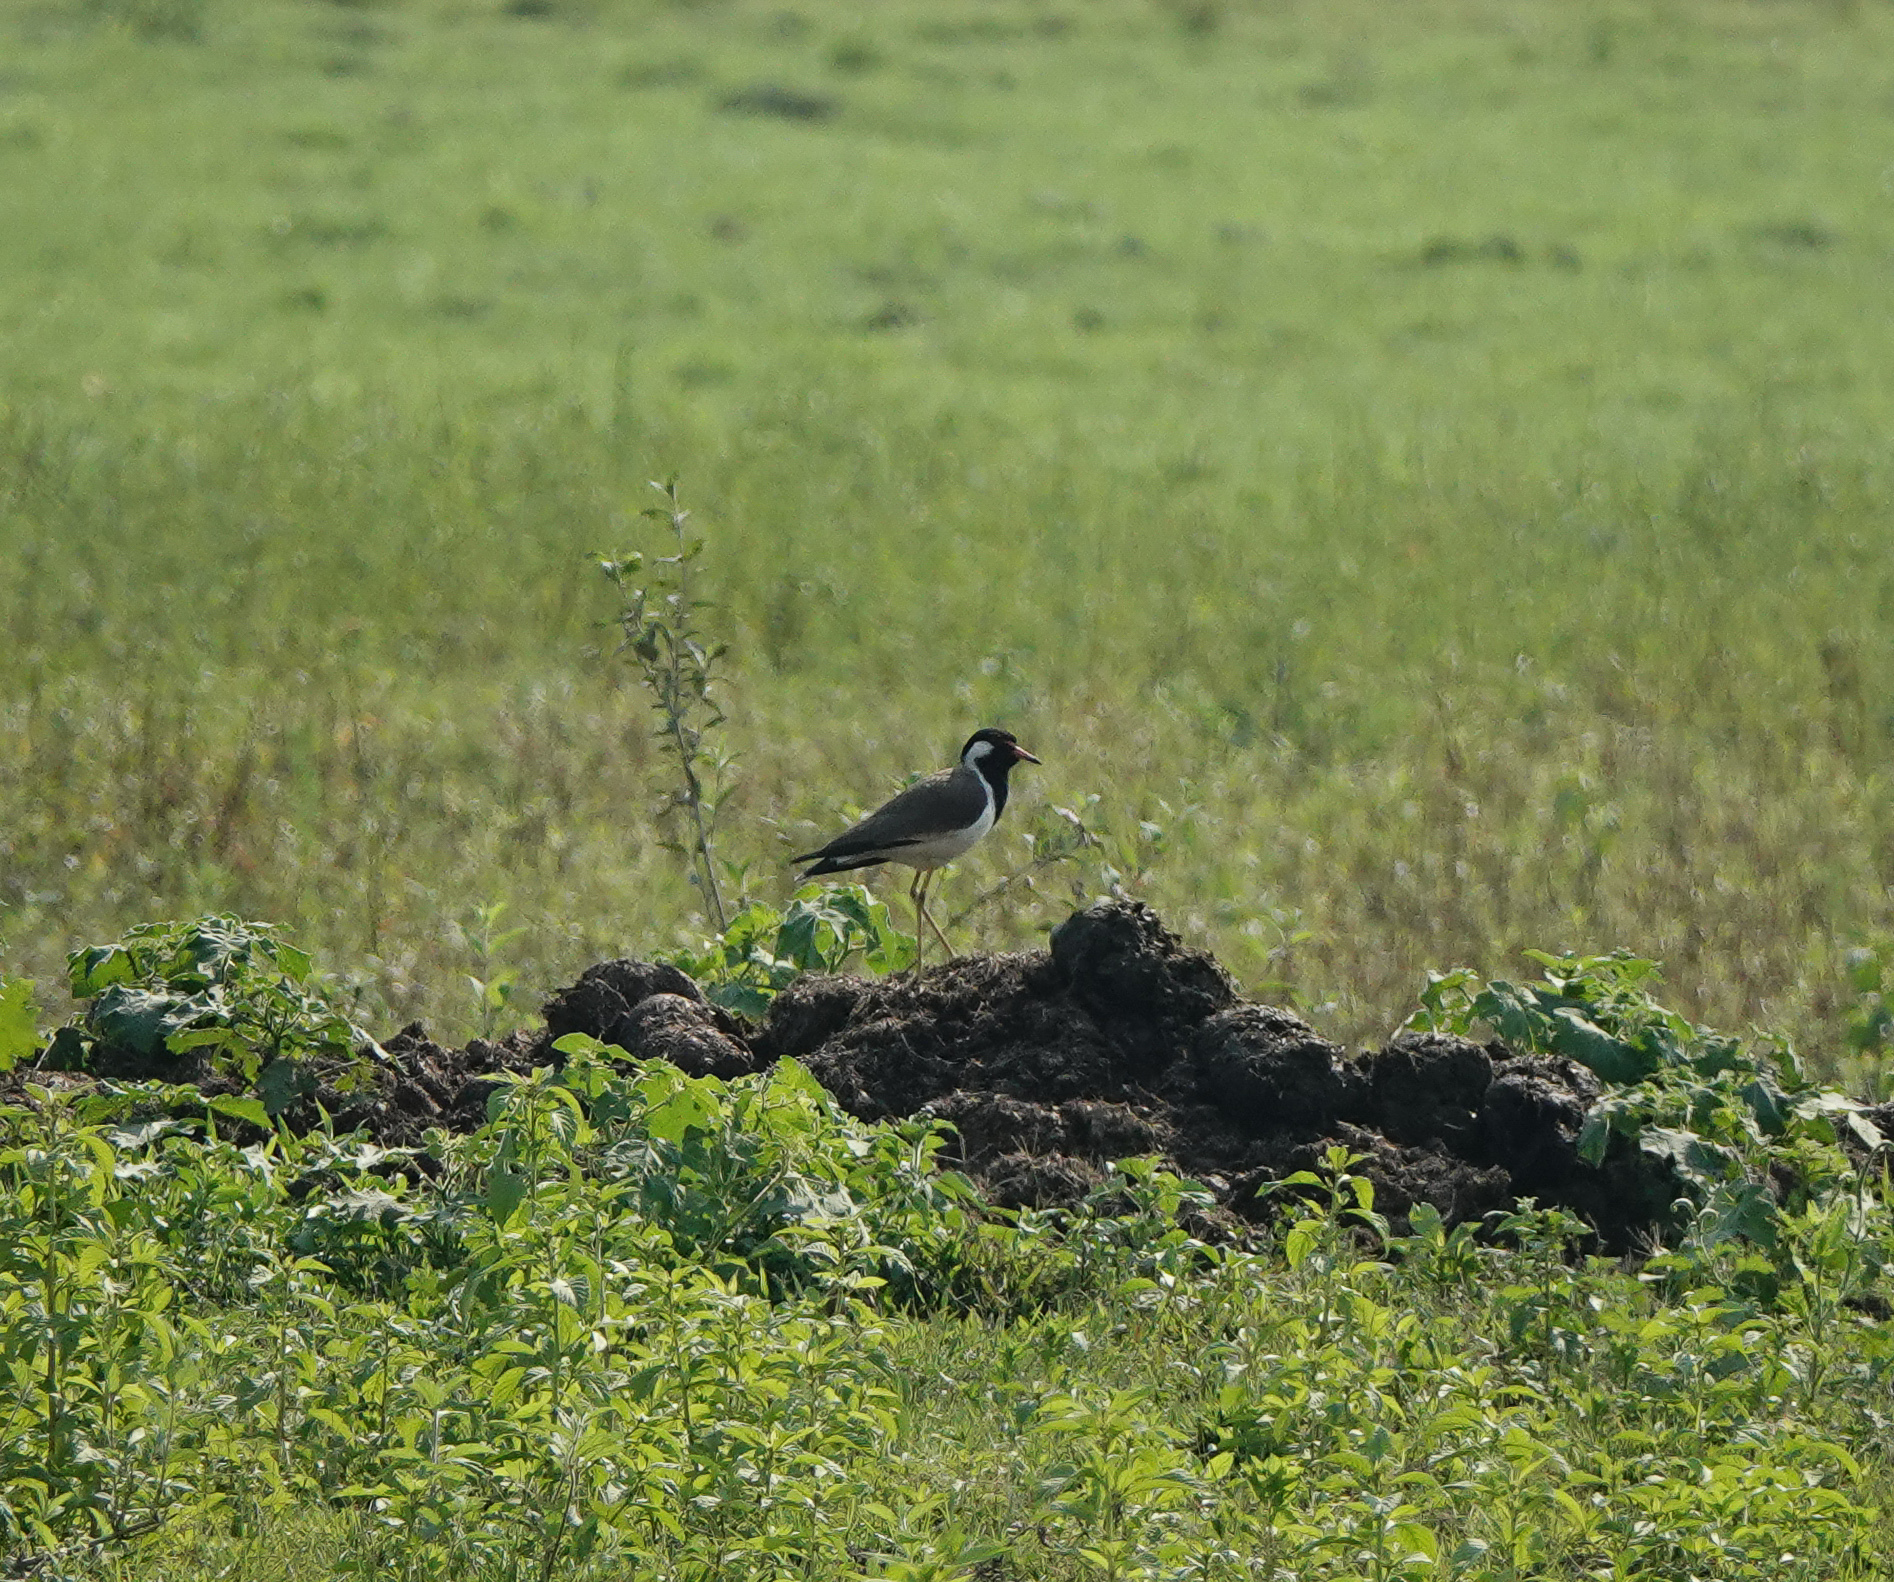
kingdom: Animalia
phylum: Chordata
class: Aves
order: Charadriiformes
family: Charadriidae
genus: Vanellus
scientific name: Vanellus indicus
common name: Red-wattled lapwing
